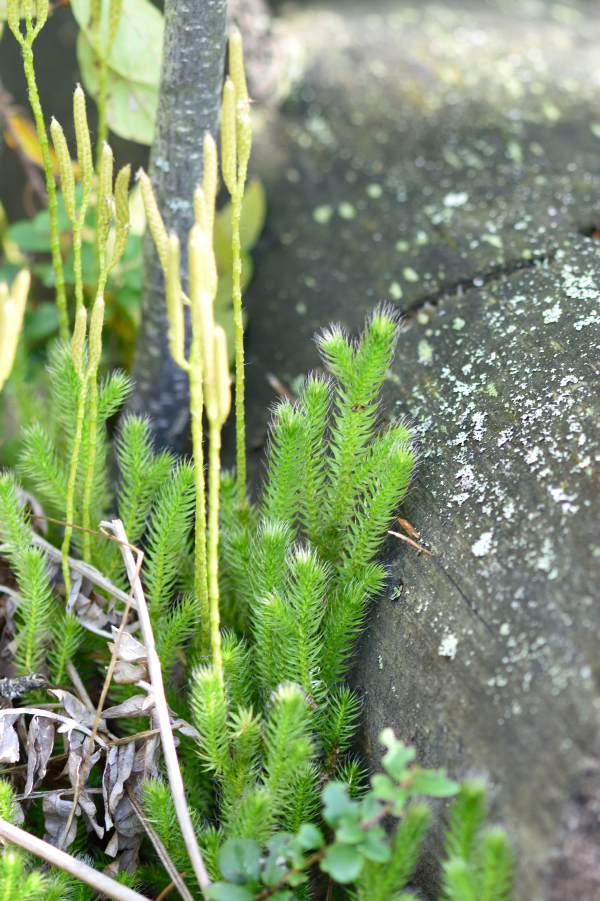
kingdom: Plantae
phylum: Tracheophyta
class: Lycopodiopsida
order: Lycopodiales
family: Lycopodiaceae
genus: Lycopodium
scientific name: Lycopodium clavatum
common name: Stag's-horn clubmoss
